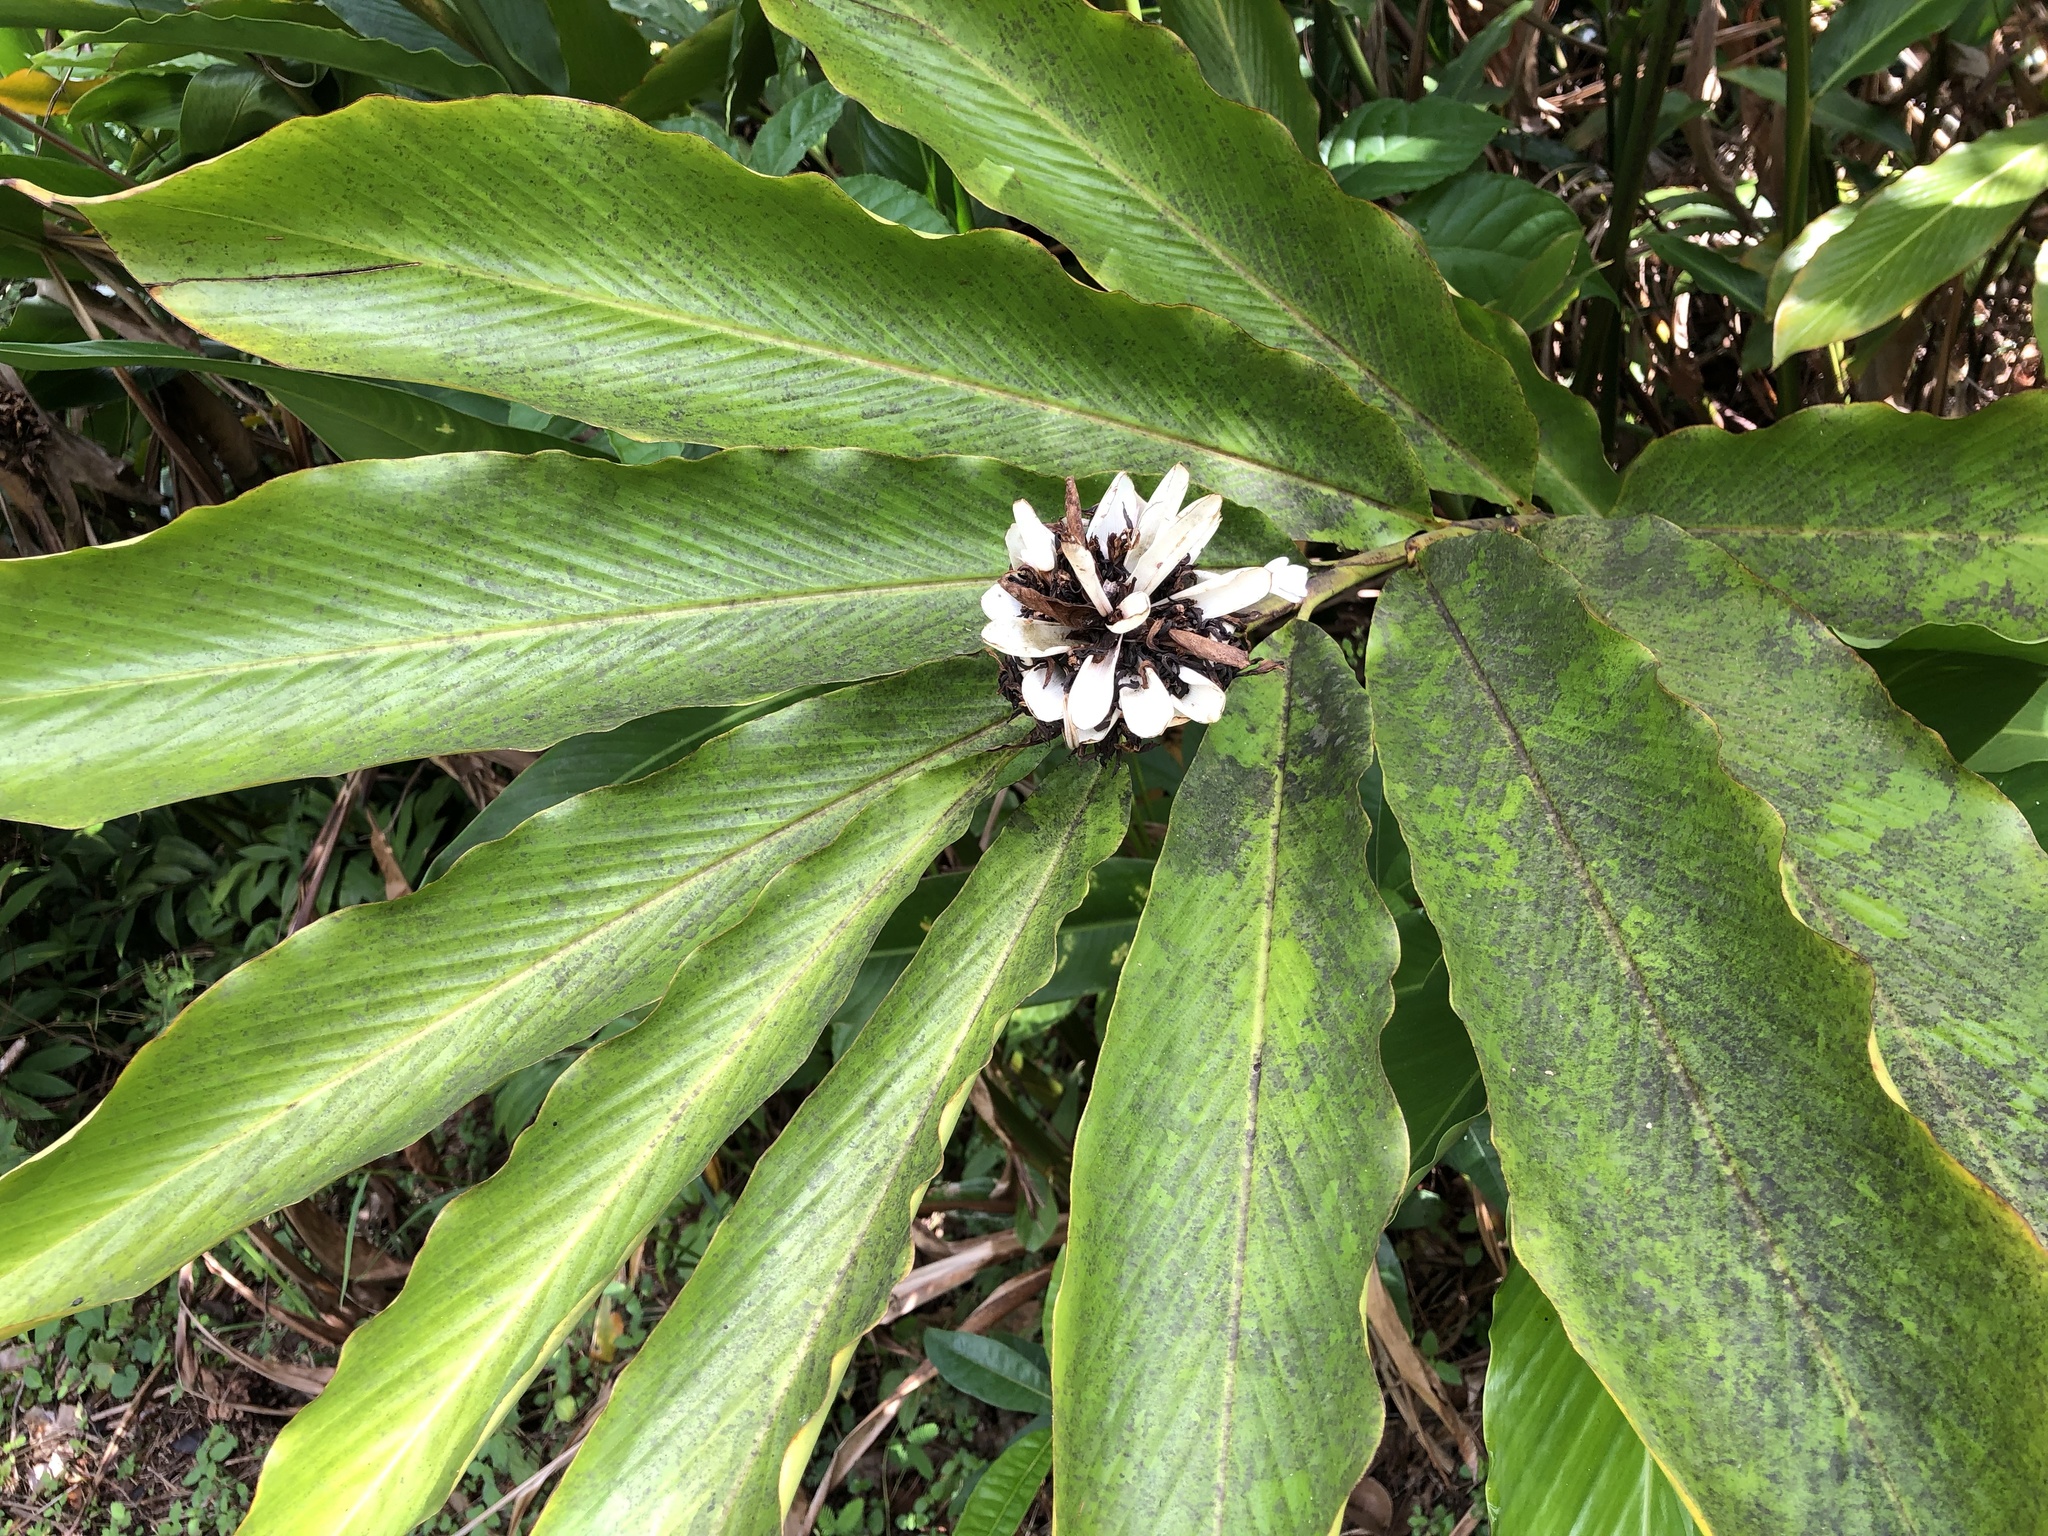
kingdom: Plantae
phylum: Tracheophyta
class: Liliopsida
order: Zingiberales
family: Zingiberaceae
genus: Alpinia
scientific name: Alpinia purpurata
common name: Red ginger
